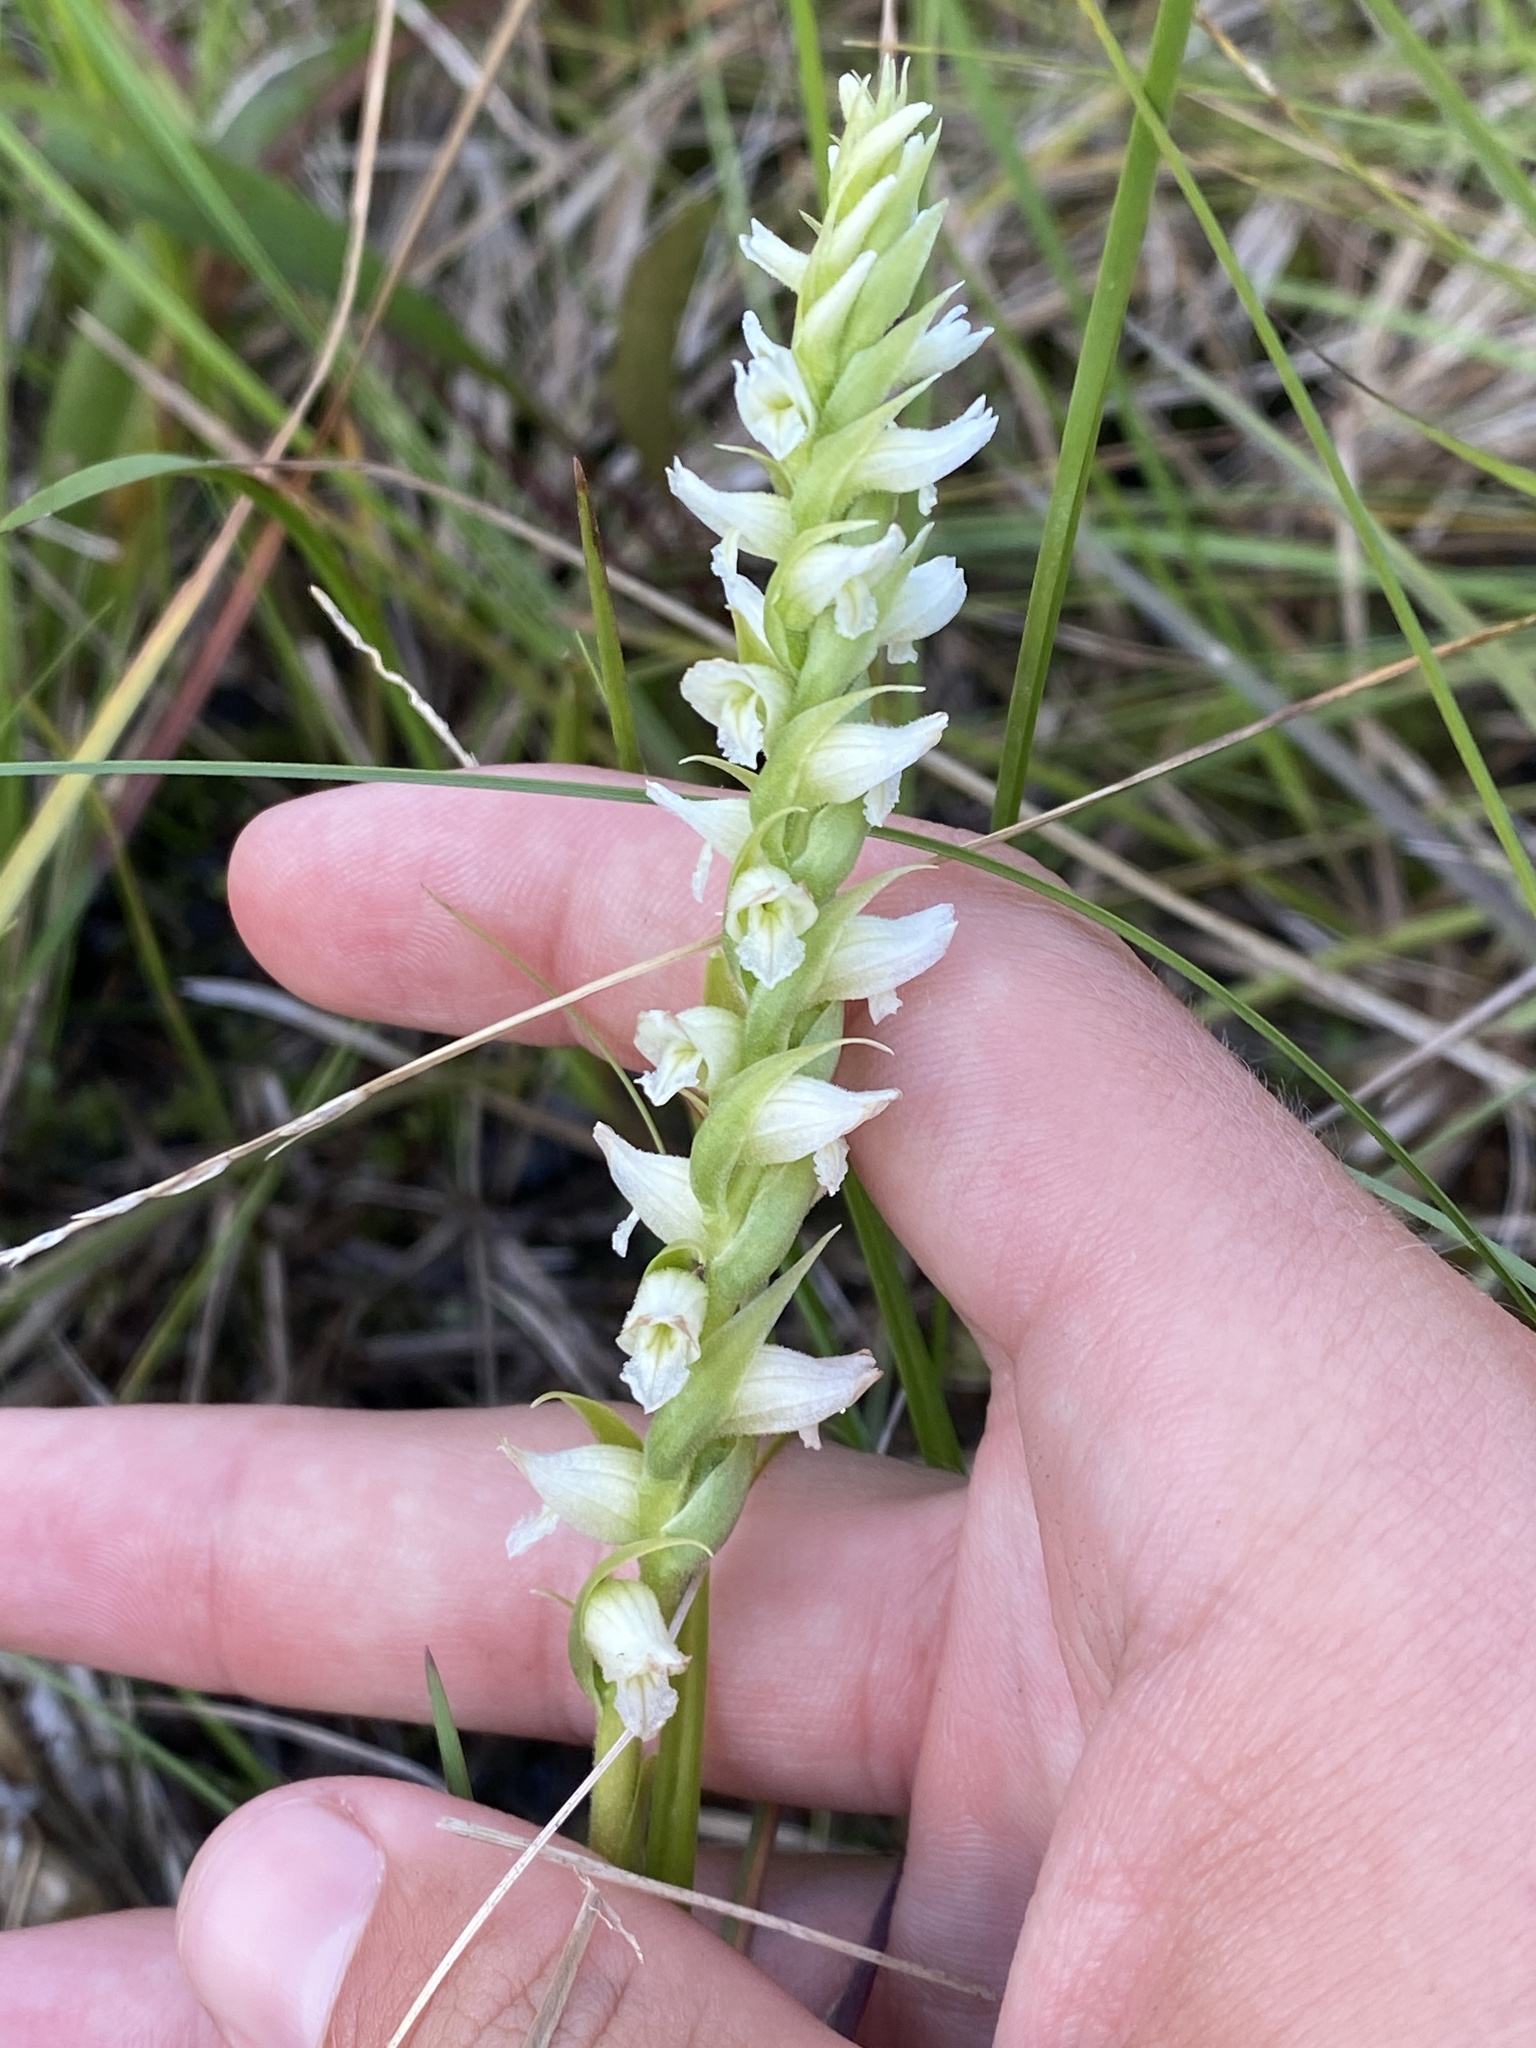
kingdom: Plantae
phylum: Tracheophyta
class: Liliopsida
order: Asparagales
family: Orchidaceae
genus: Spiranthes
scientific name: Spiranthes romanzoffiana
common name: Irish lady's-tresses
